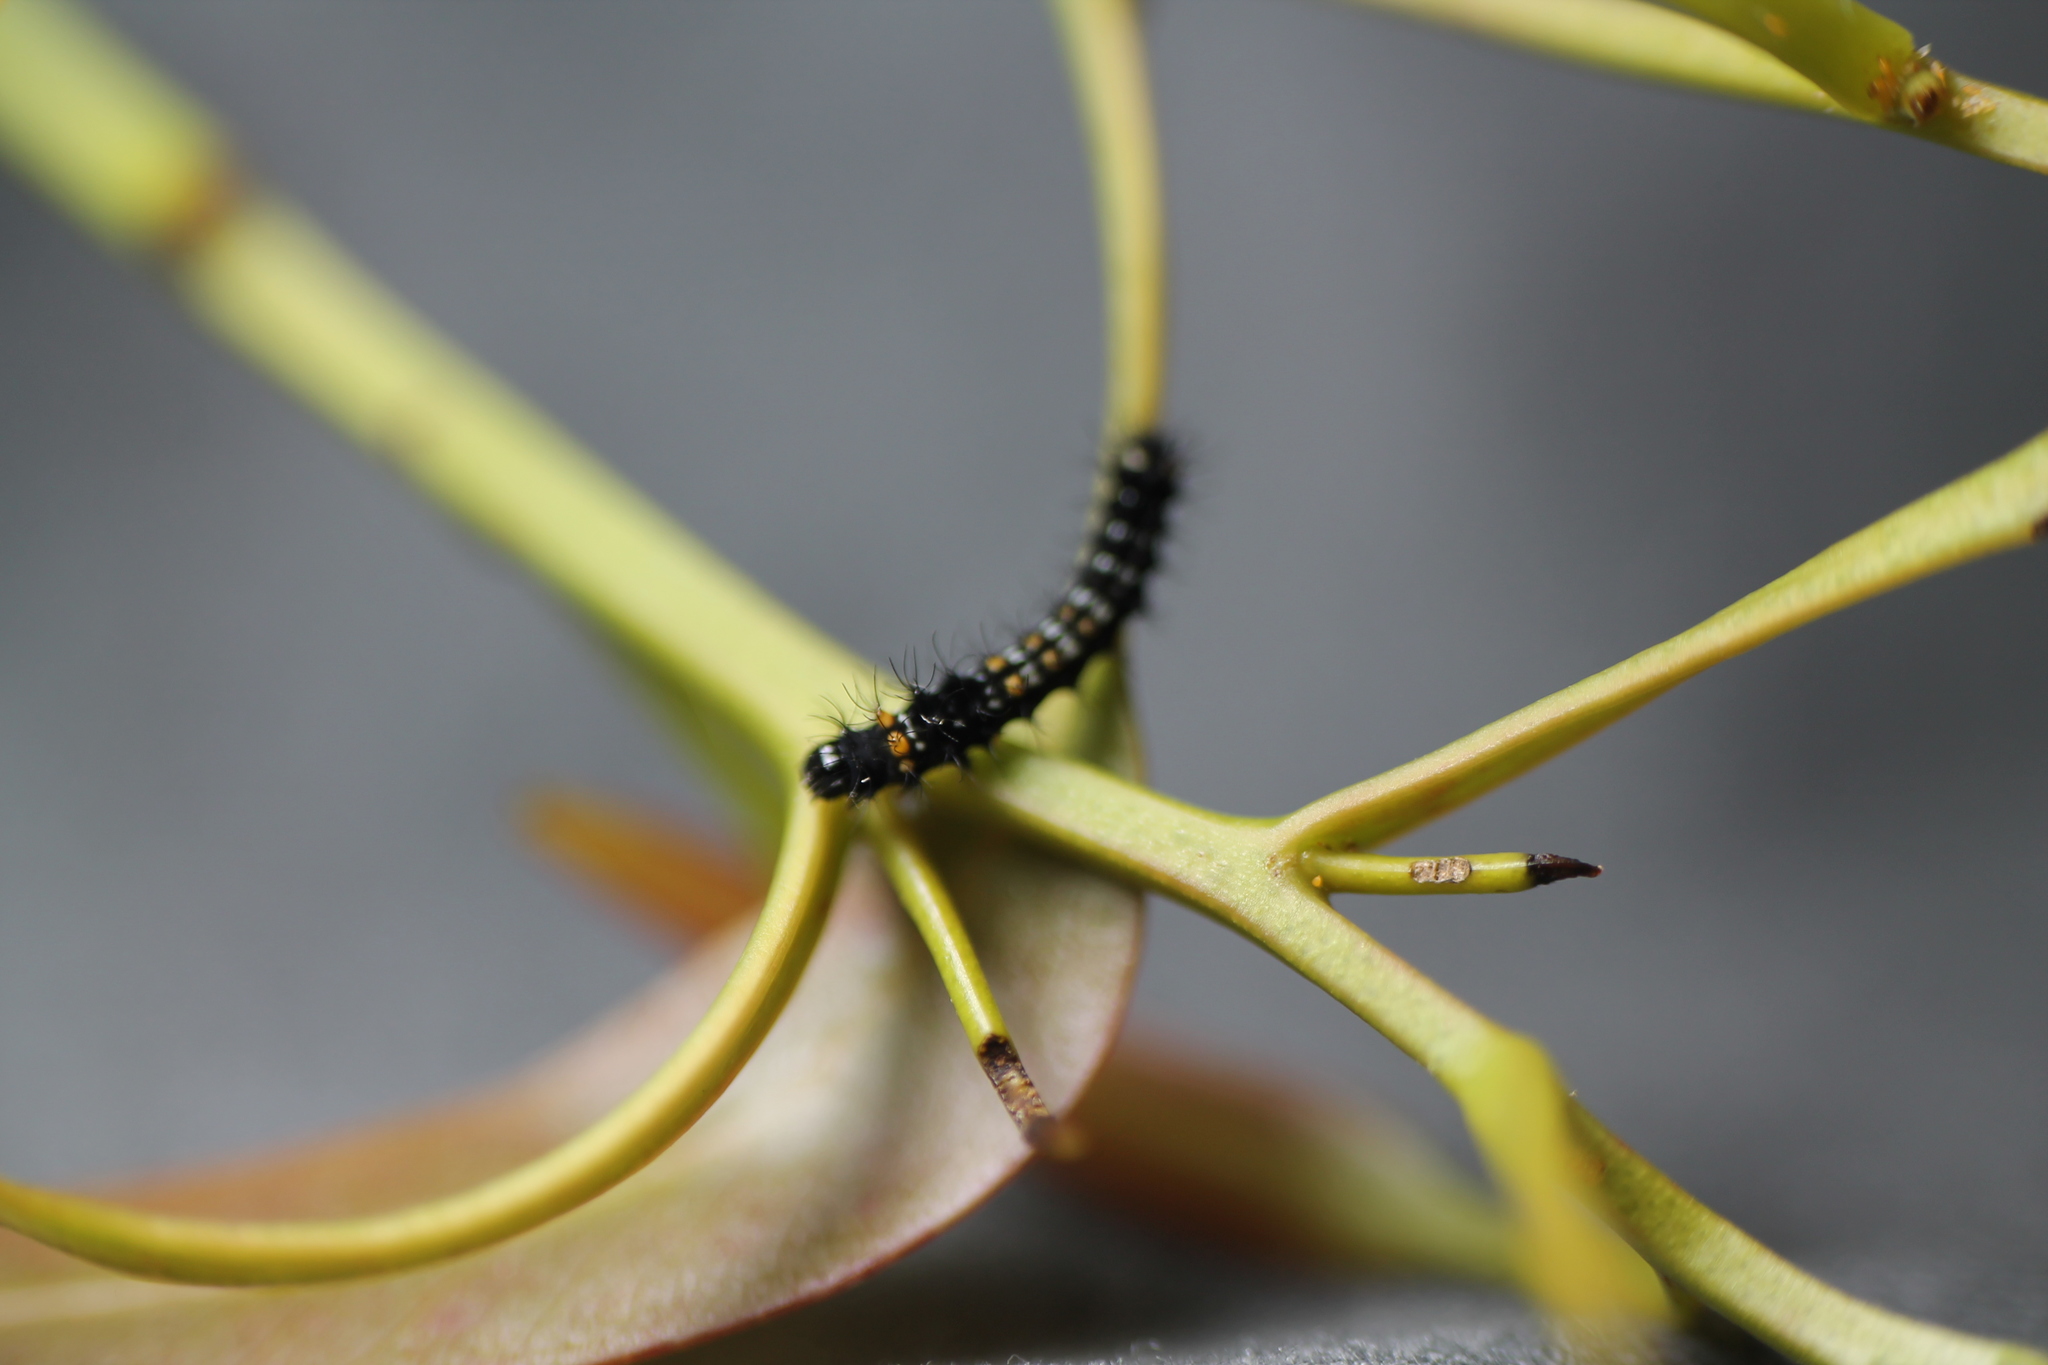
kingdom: Animalia
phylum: Arthropoda
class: Insecta
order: Lepidoptera
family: Saturniidae
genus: Opodiphthera
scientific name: Opodiphthera
